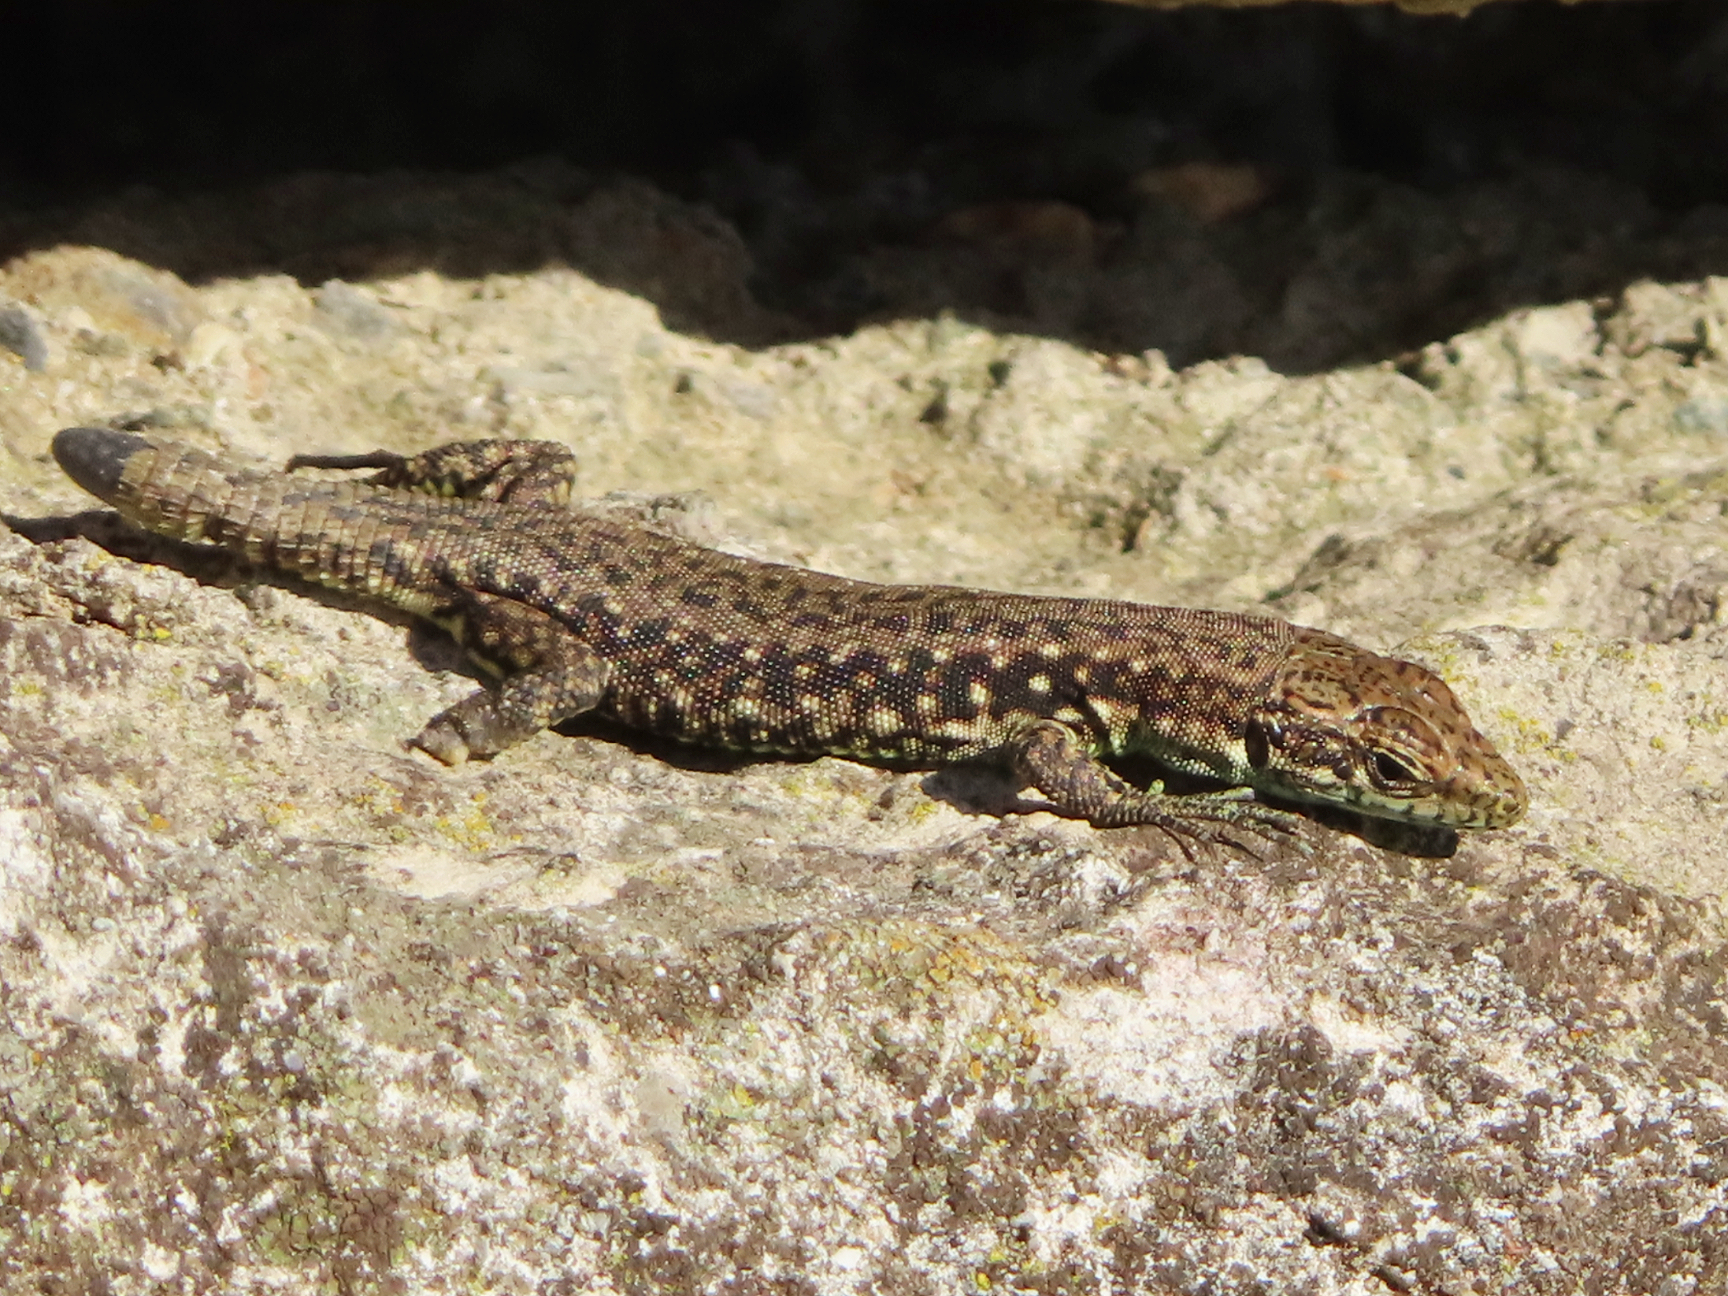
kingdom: Animalia
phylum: Chordata
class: Squamata
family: Lacertidae
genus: Darevskia
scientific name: Darevskia rudis
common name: Spiny-tailed lizard
